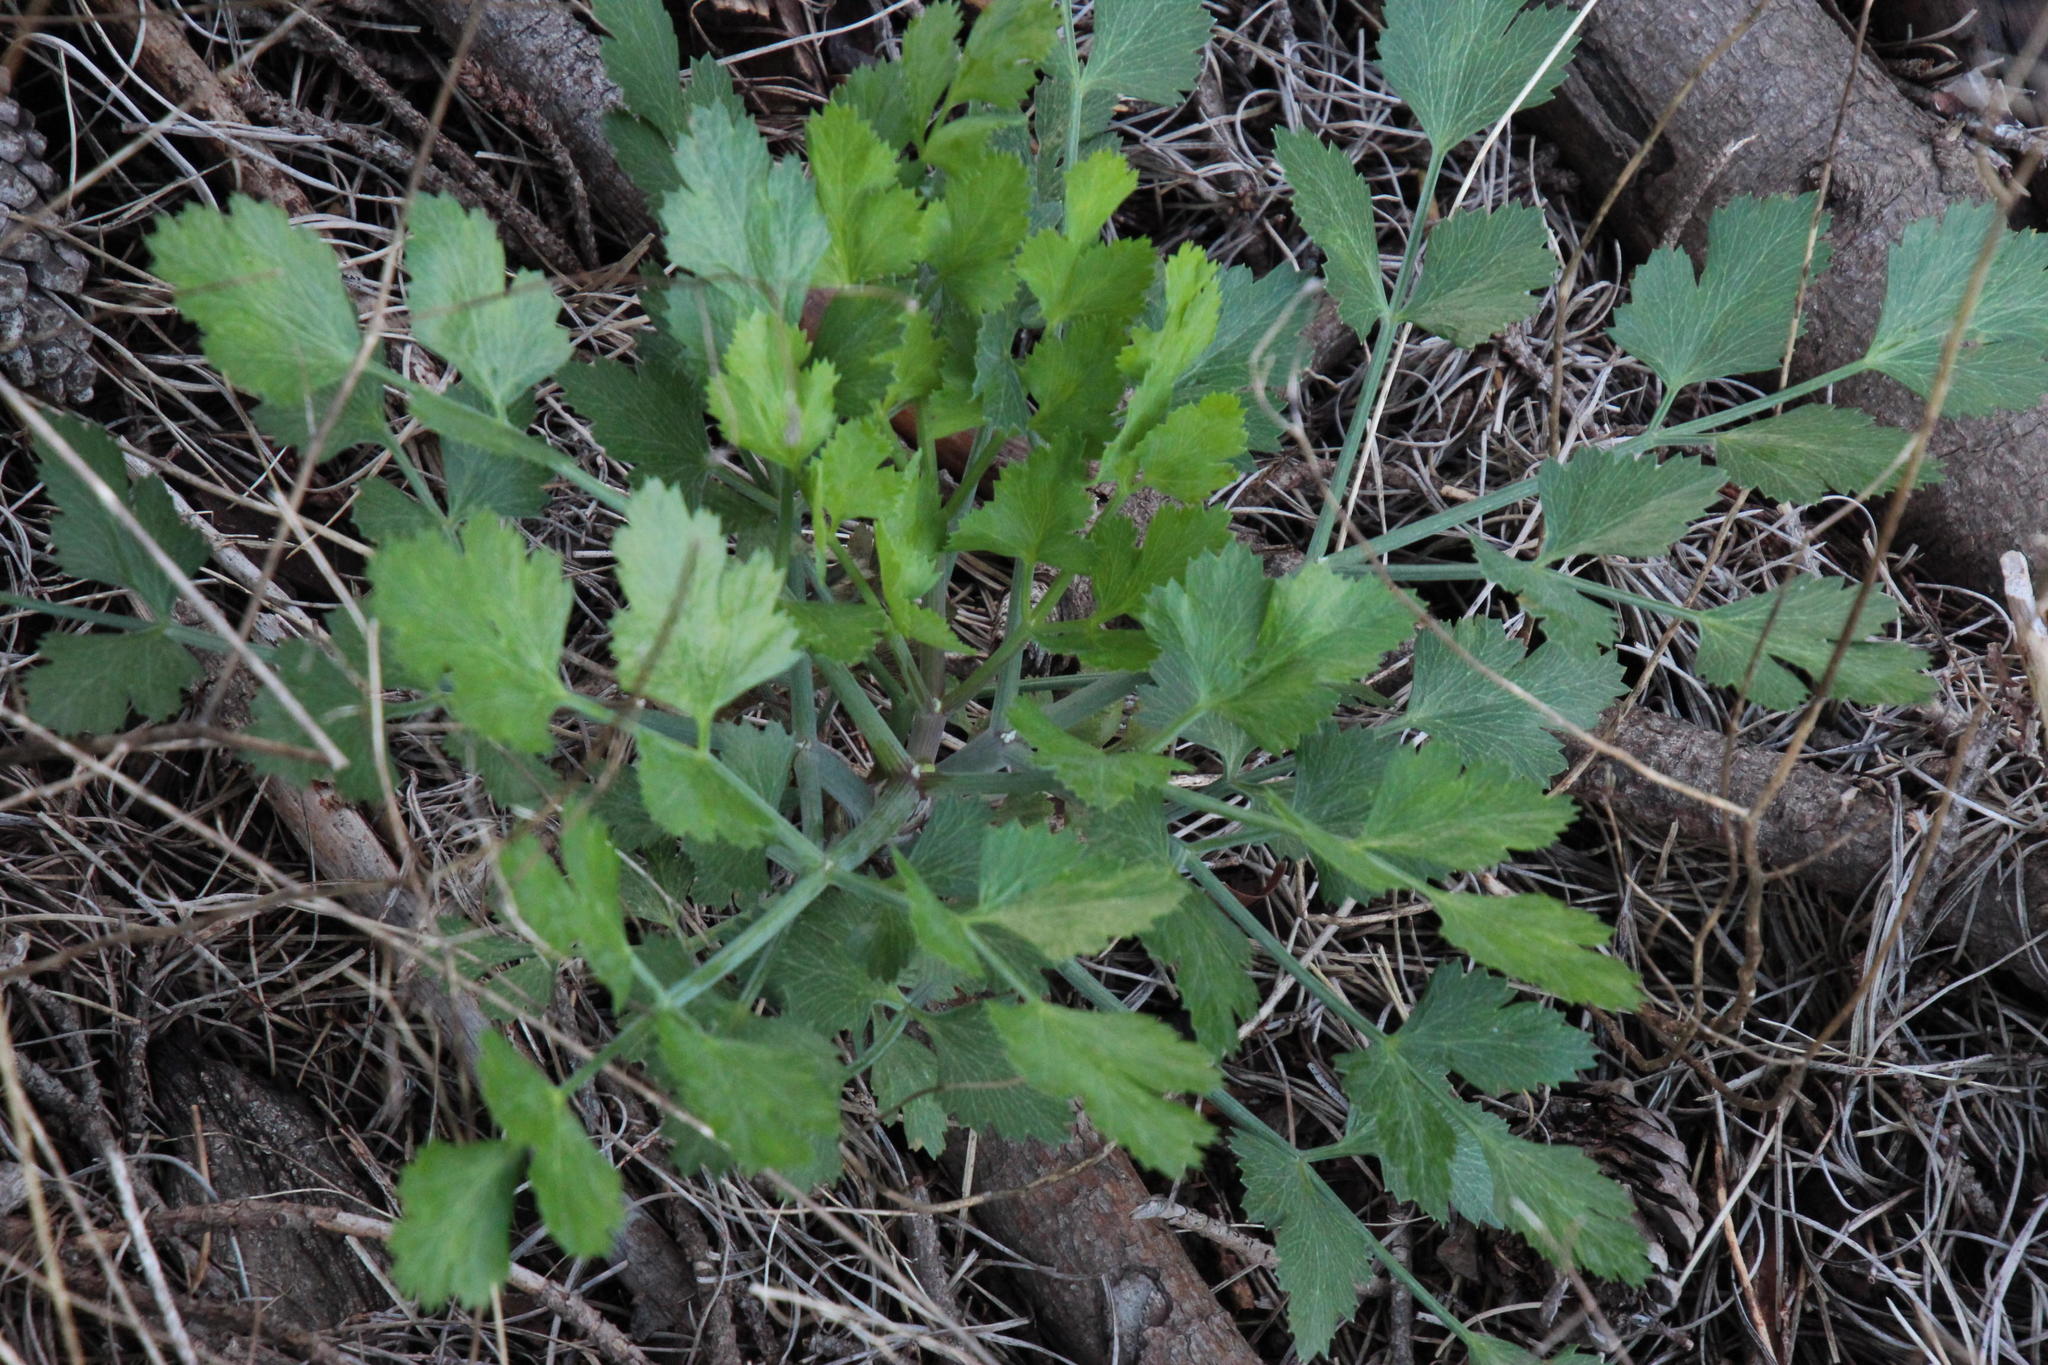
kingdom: Plantae
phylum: Tracheophyta
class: Magnoliopsida
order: Apiales
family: Apiaceae
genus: Notobubon
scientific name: Notobubon galbanum
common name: Blisterbush
